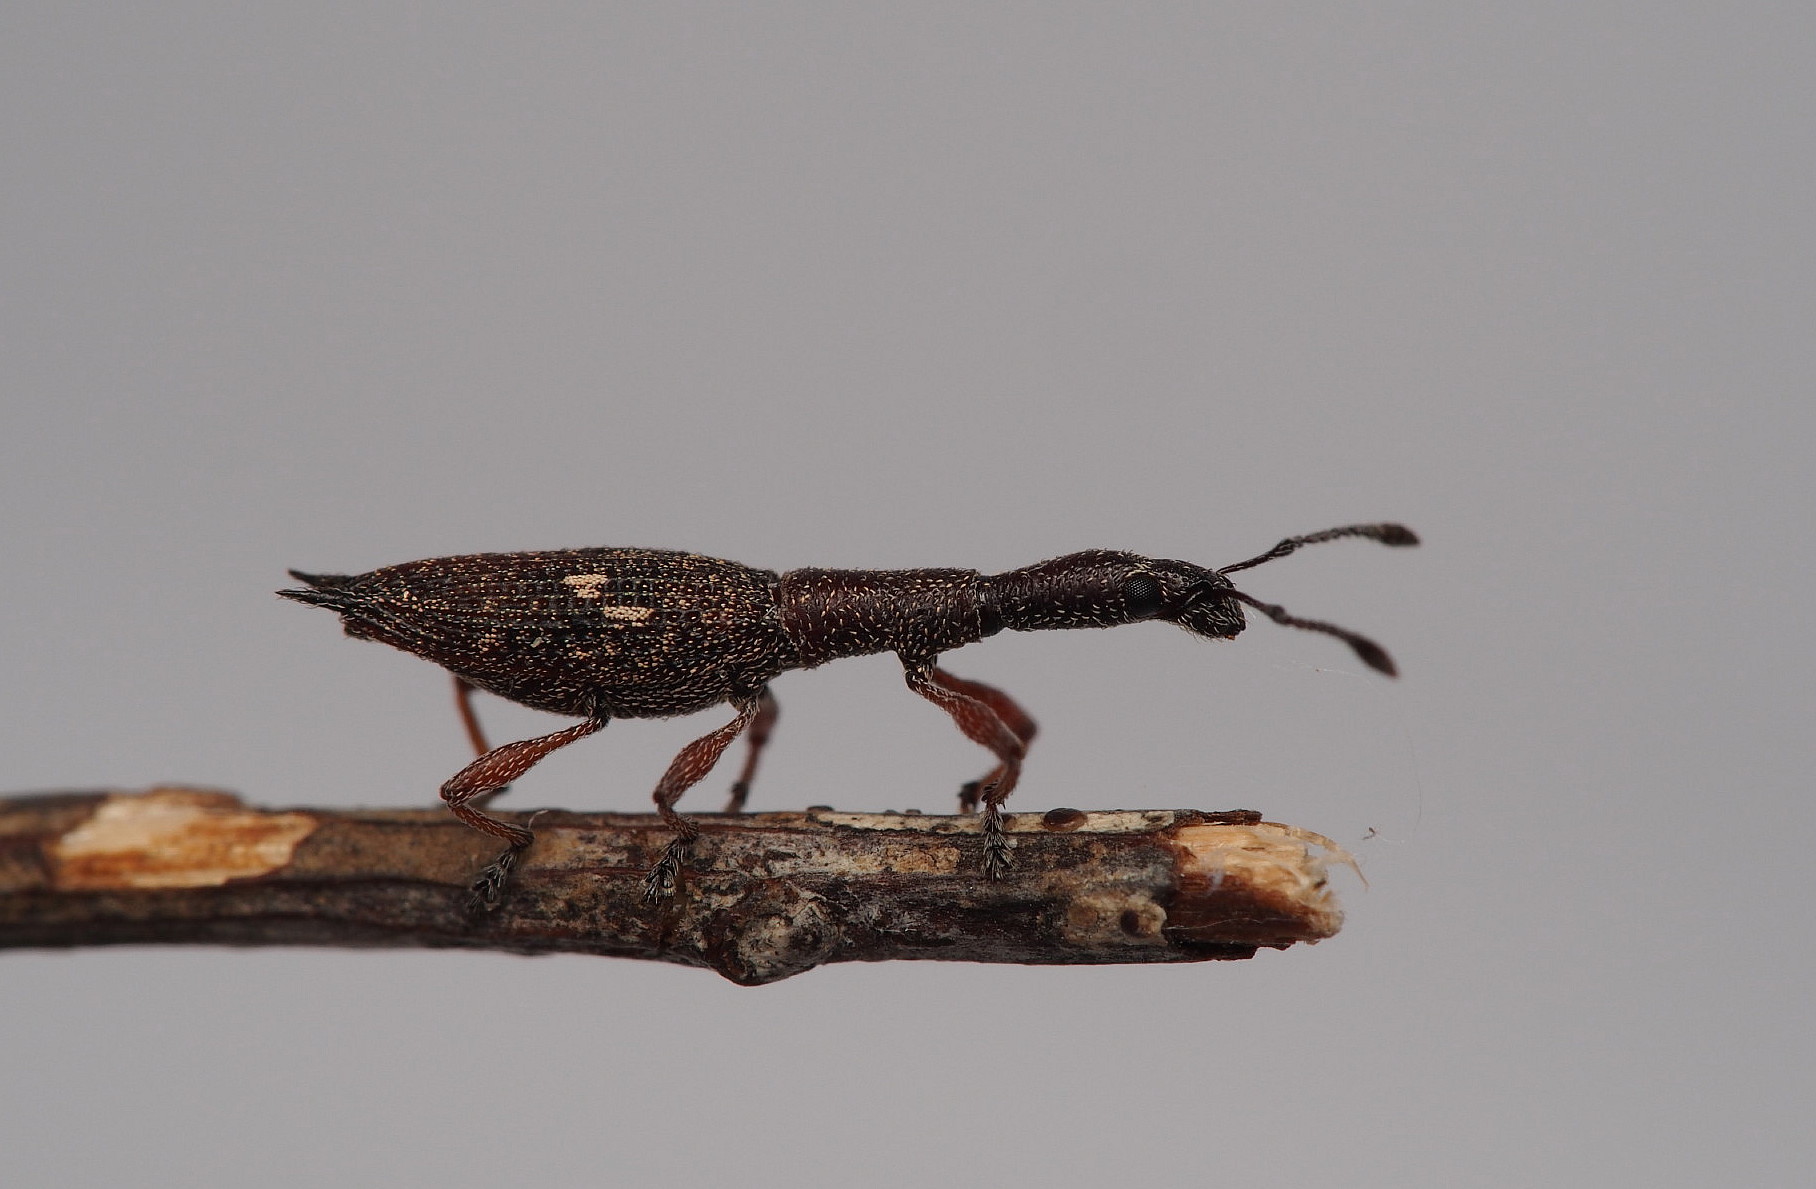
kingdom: Animalia
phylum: Arthropoda
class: Insecta
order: Coleoptera
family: Curculionidae
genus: Rhadinosomus
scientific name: Rhadinosomus acuminatus
